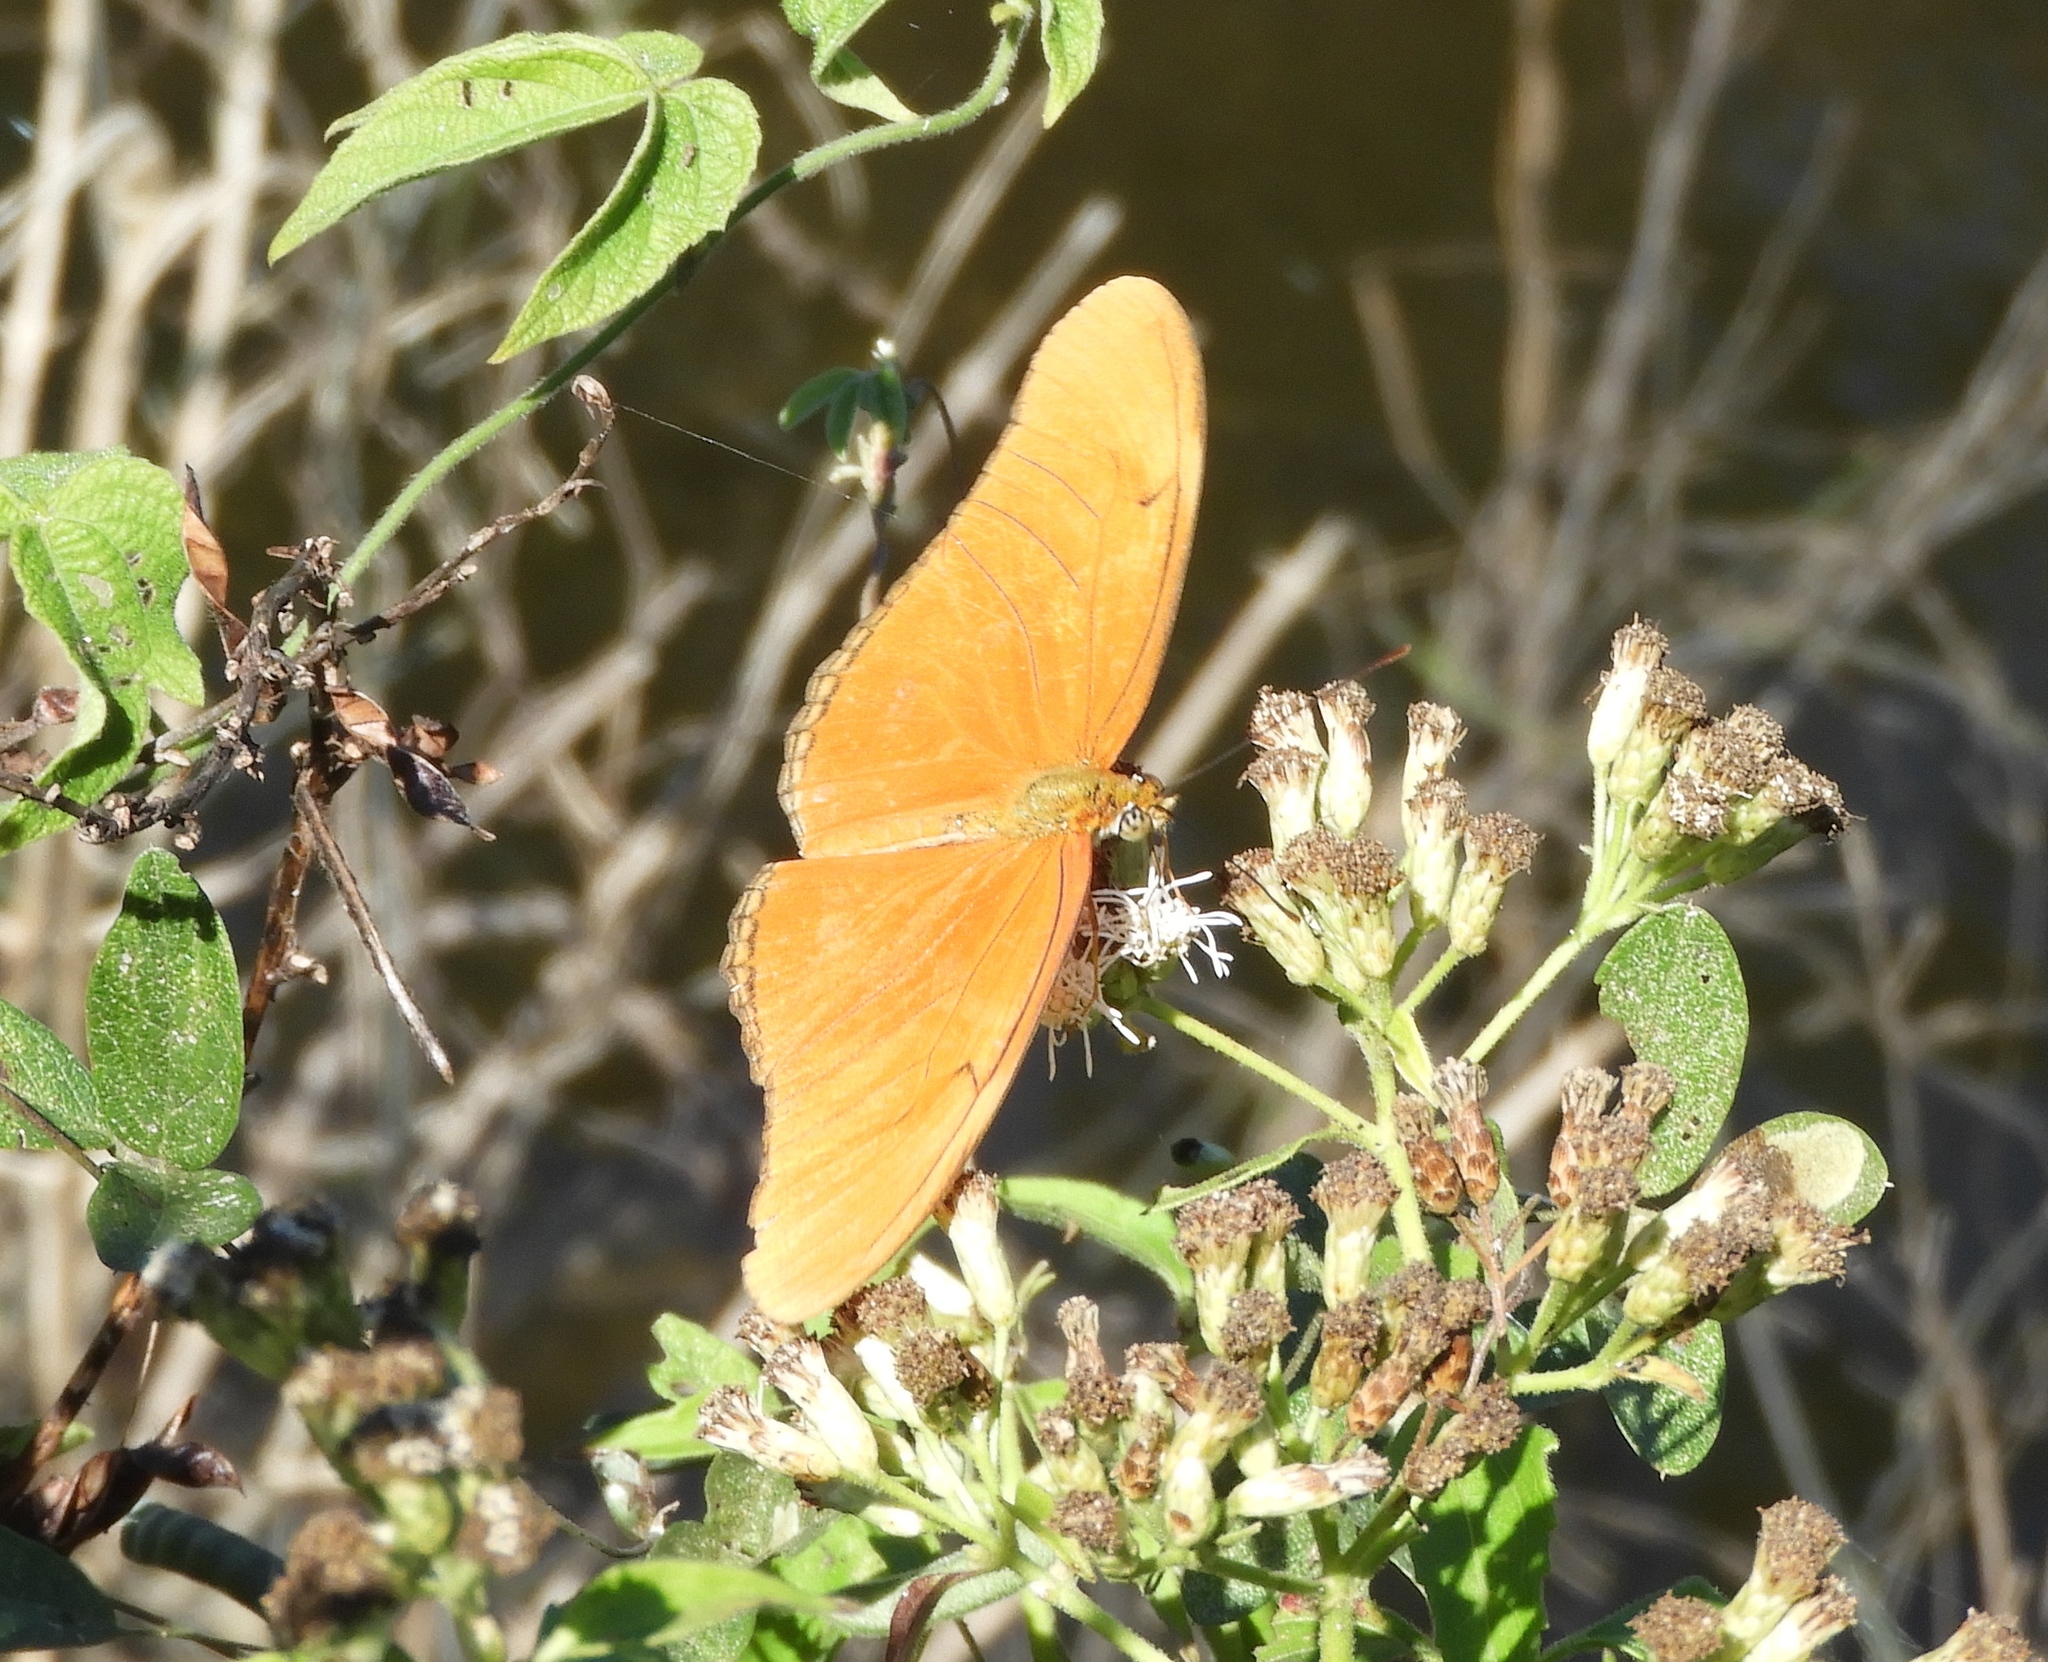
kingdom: Animalia
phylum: Arthropoda
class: Insecta
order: Lepidoptera
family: Nymphalidae
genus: Dryas
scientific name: Dryas iulia
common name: Flambeau
